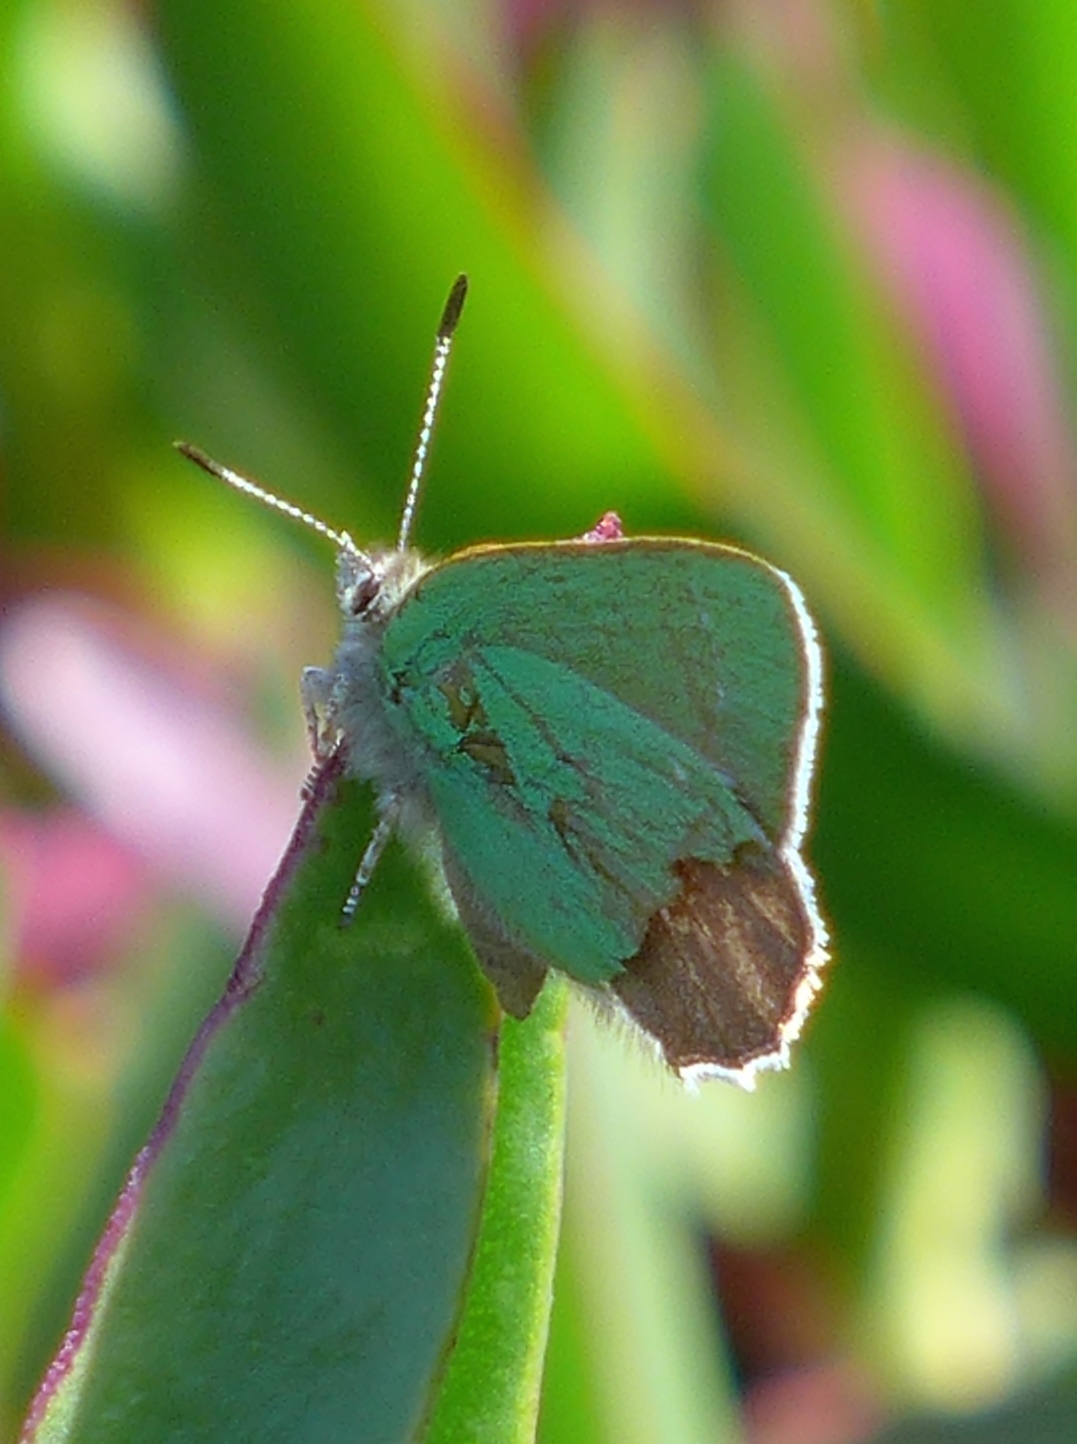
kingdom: Animalia
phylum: Arthropoda
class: Insecta
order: Lepidoptera
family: Lycaenidae
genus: Callophrys
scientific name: Callophrys viridis
